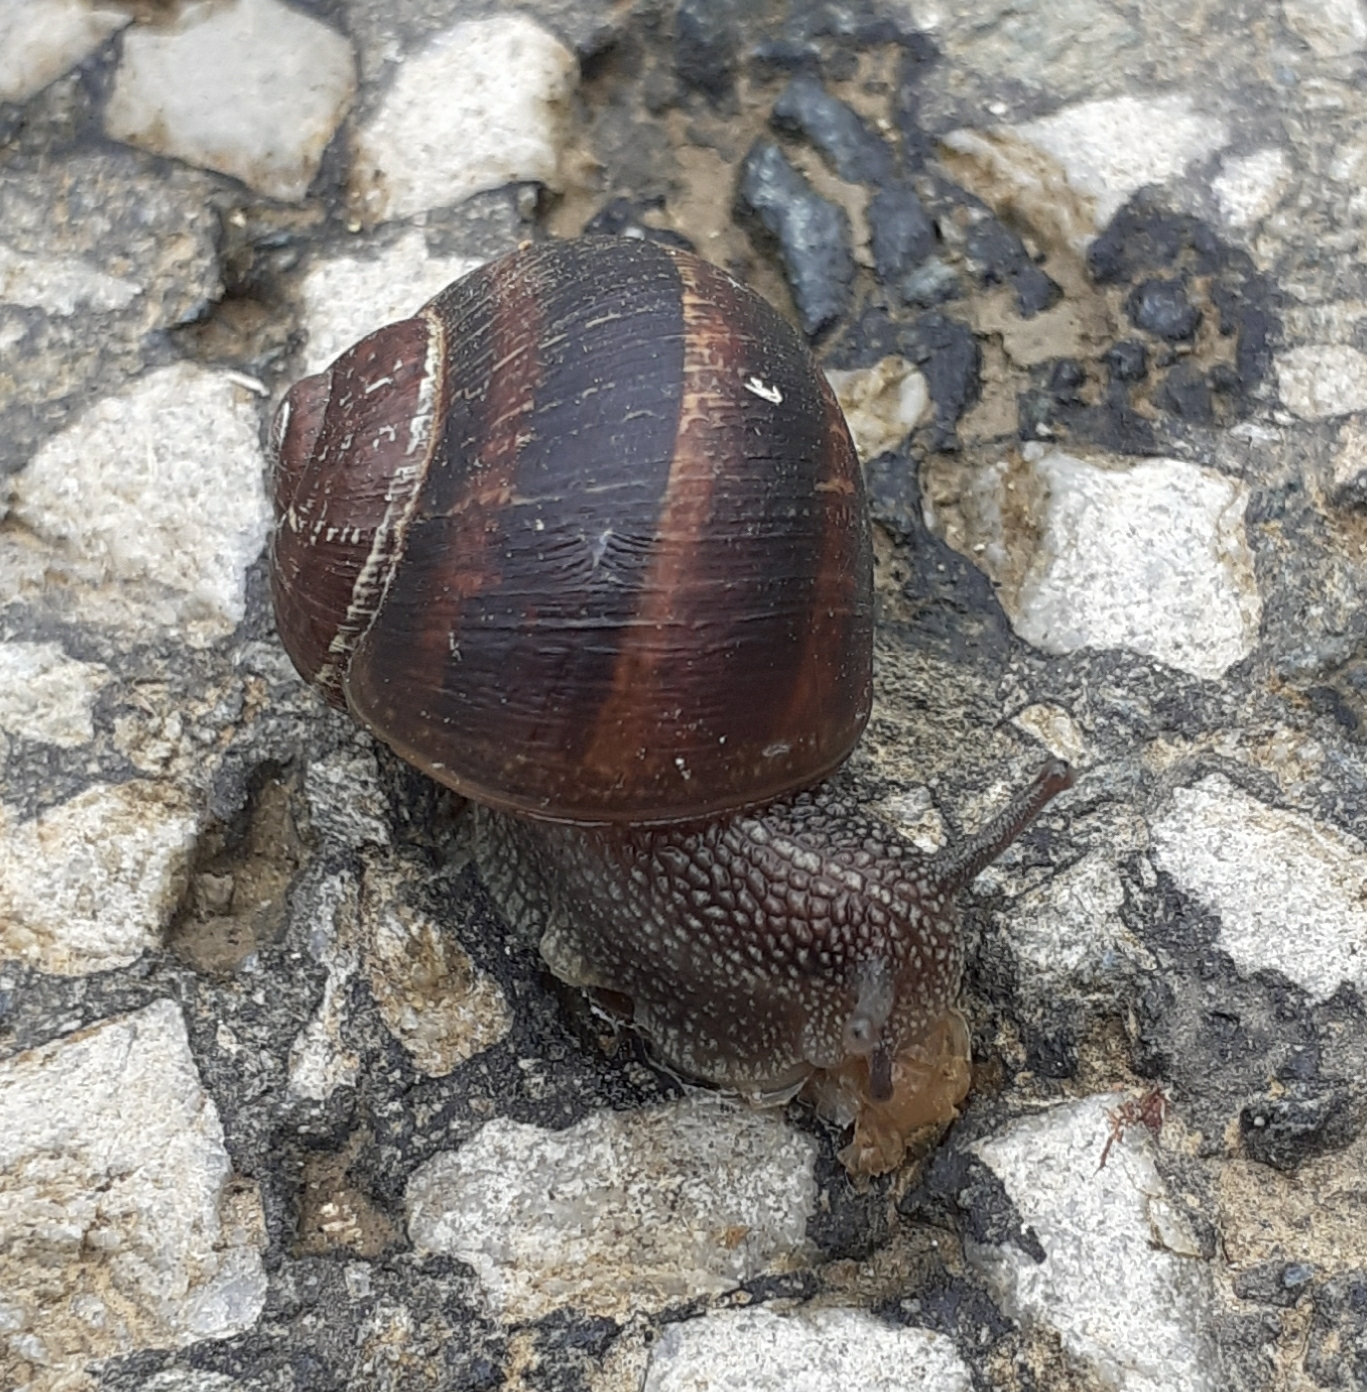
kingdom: Animalia
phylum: Mollusca
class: Gastropoda
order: Stylommatophora
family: Helicidae
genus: Cornu
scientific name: Cornu aspersum
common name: Brown garden snail
